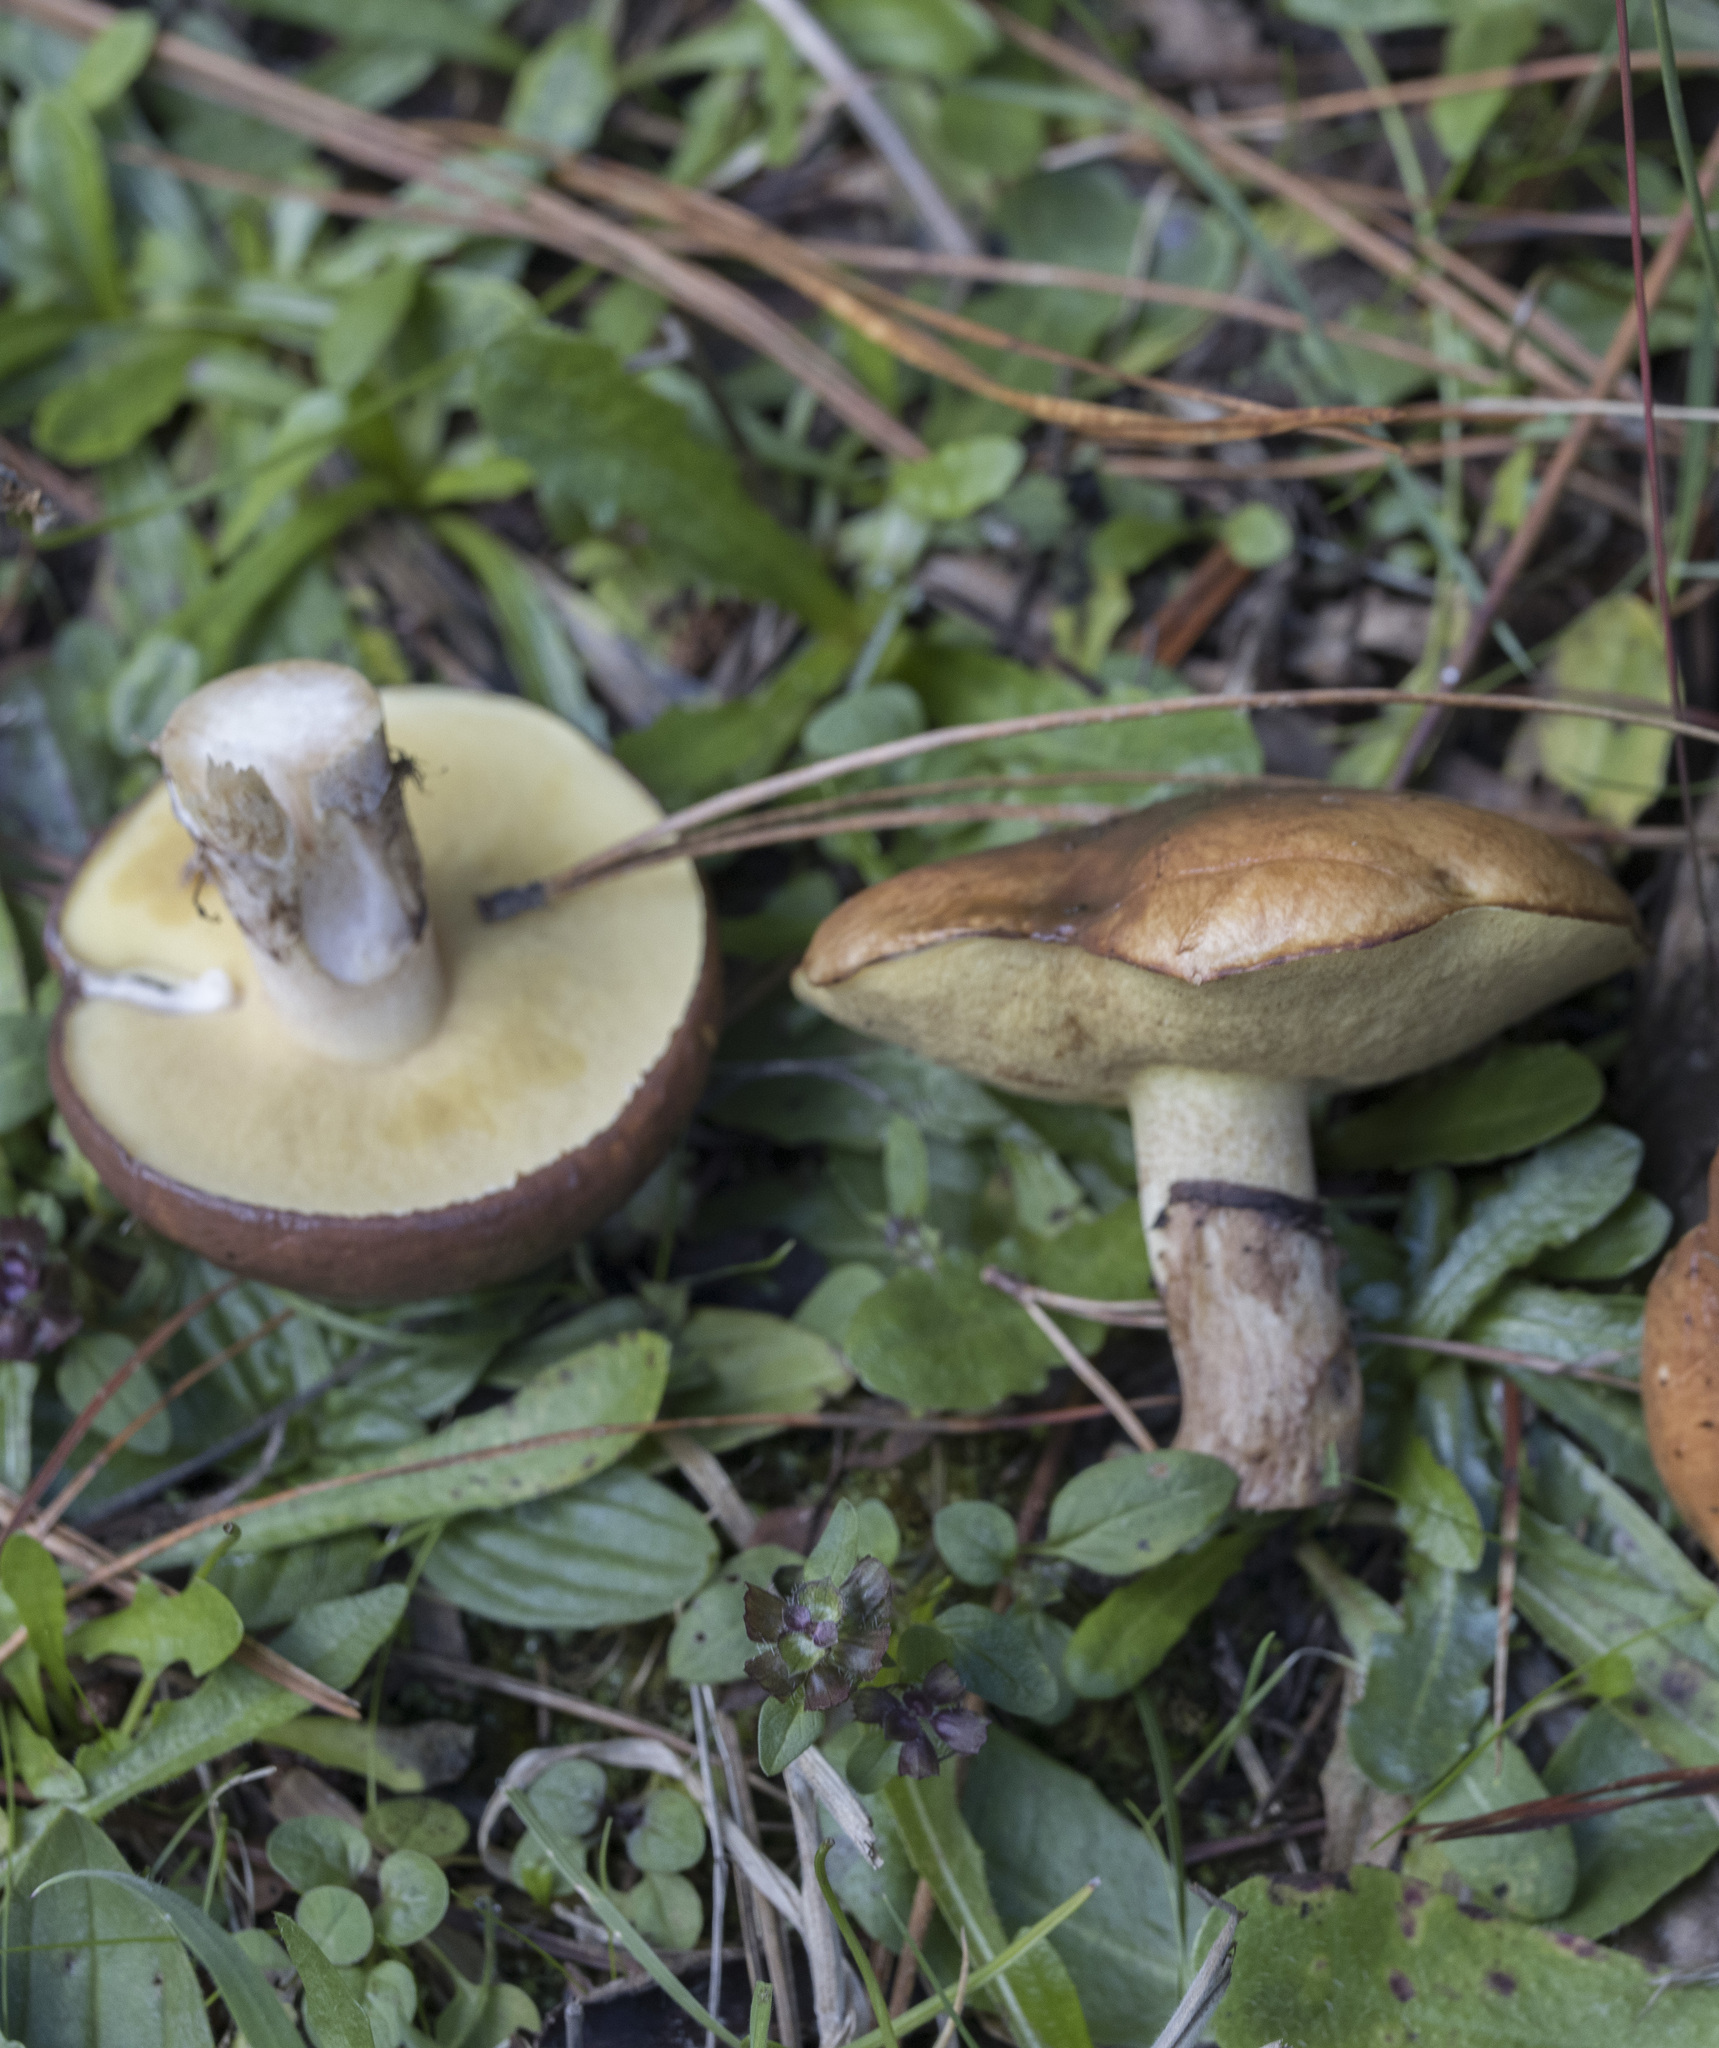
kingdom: Fungi
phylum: Basidiomycota
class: Agaricomycetes
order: Boletales
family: Suillaceae
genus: Suillus
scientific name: Suillus luteus
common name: Slippery jack
